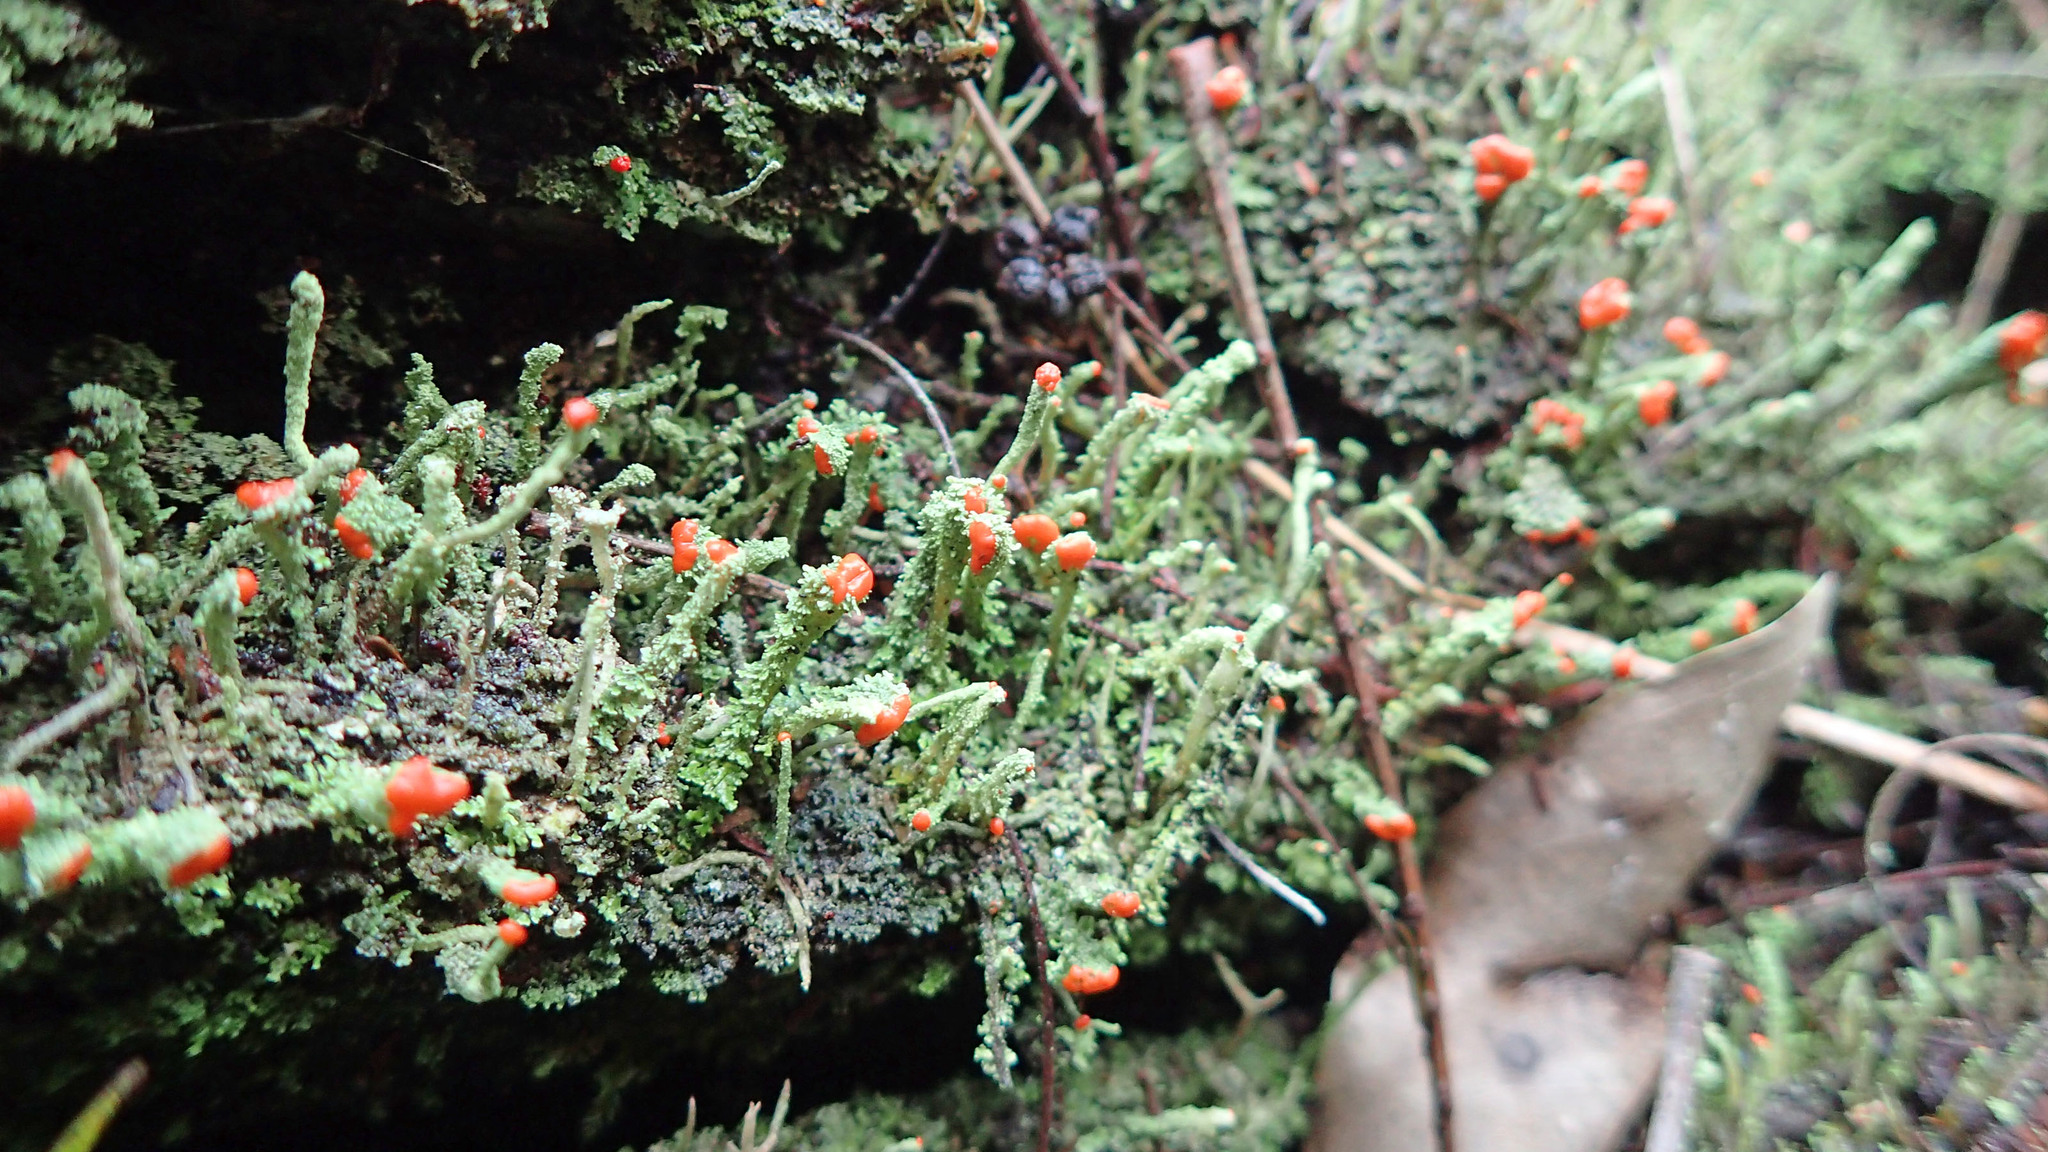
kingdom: Fungi
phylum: Ascomycota
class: Lecanoromycetes
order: Lecanorales
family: Cladoniaceae
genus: Cladonia
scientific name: Cladonia didyma
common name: Southern soldiers
